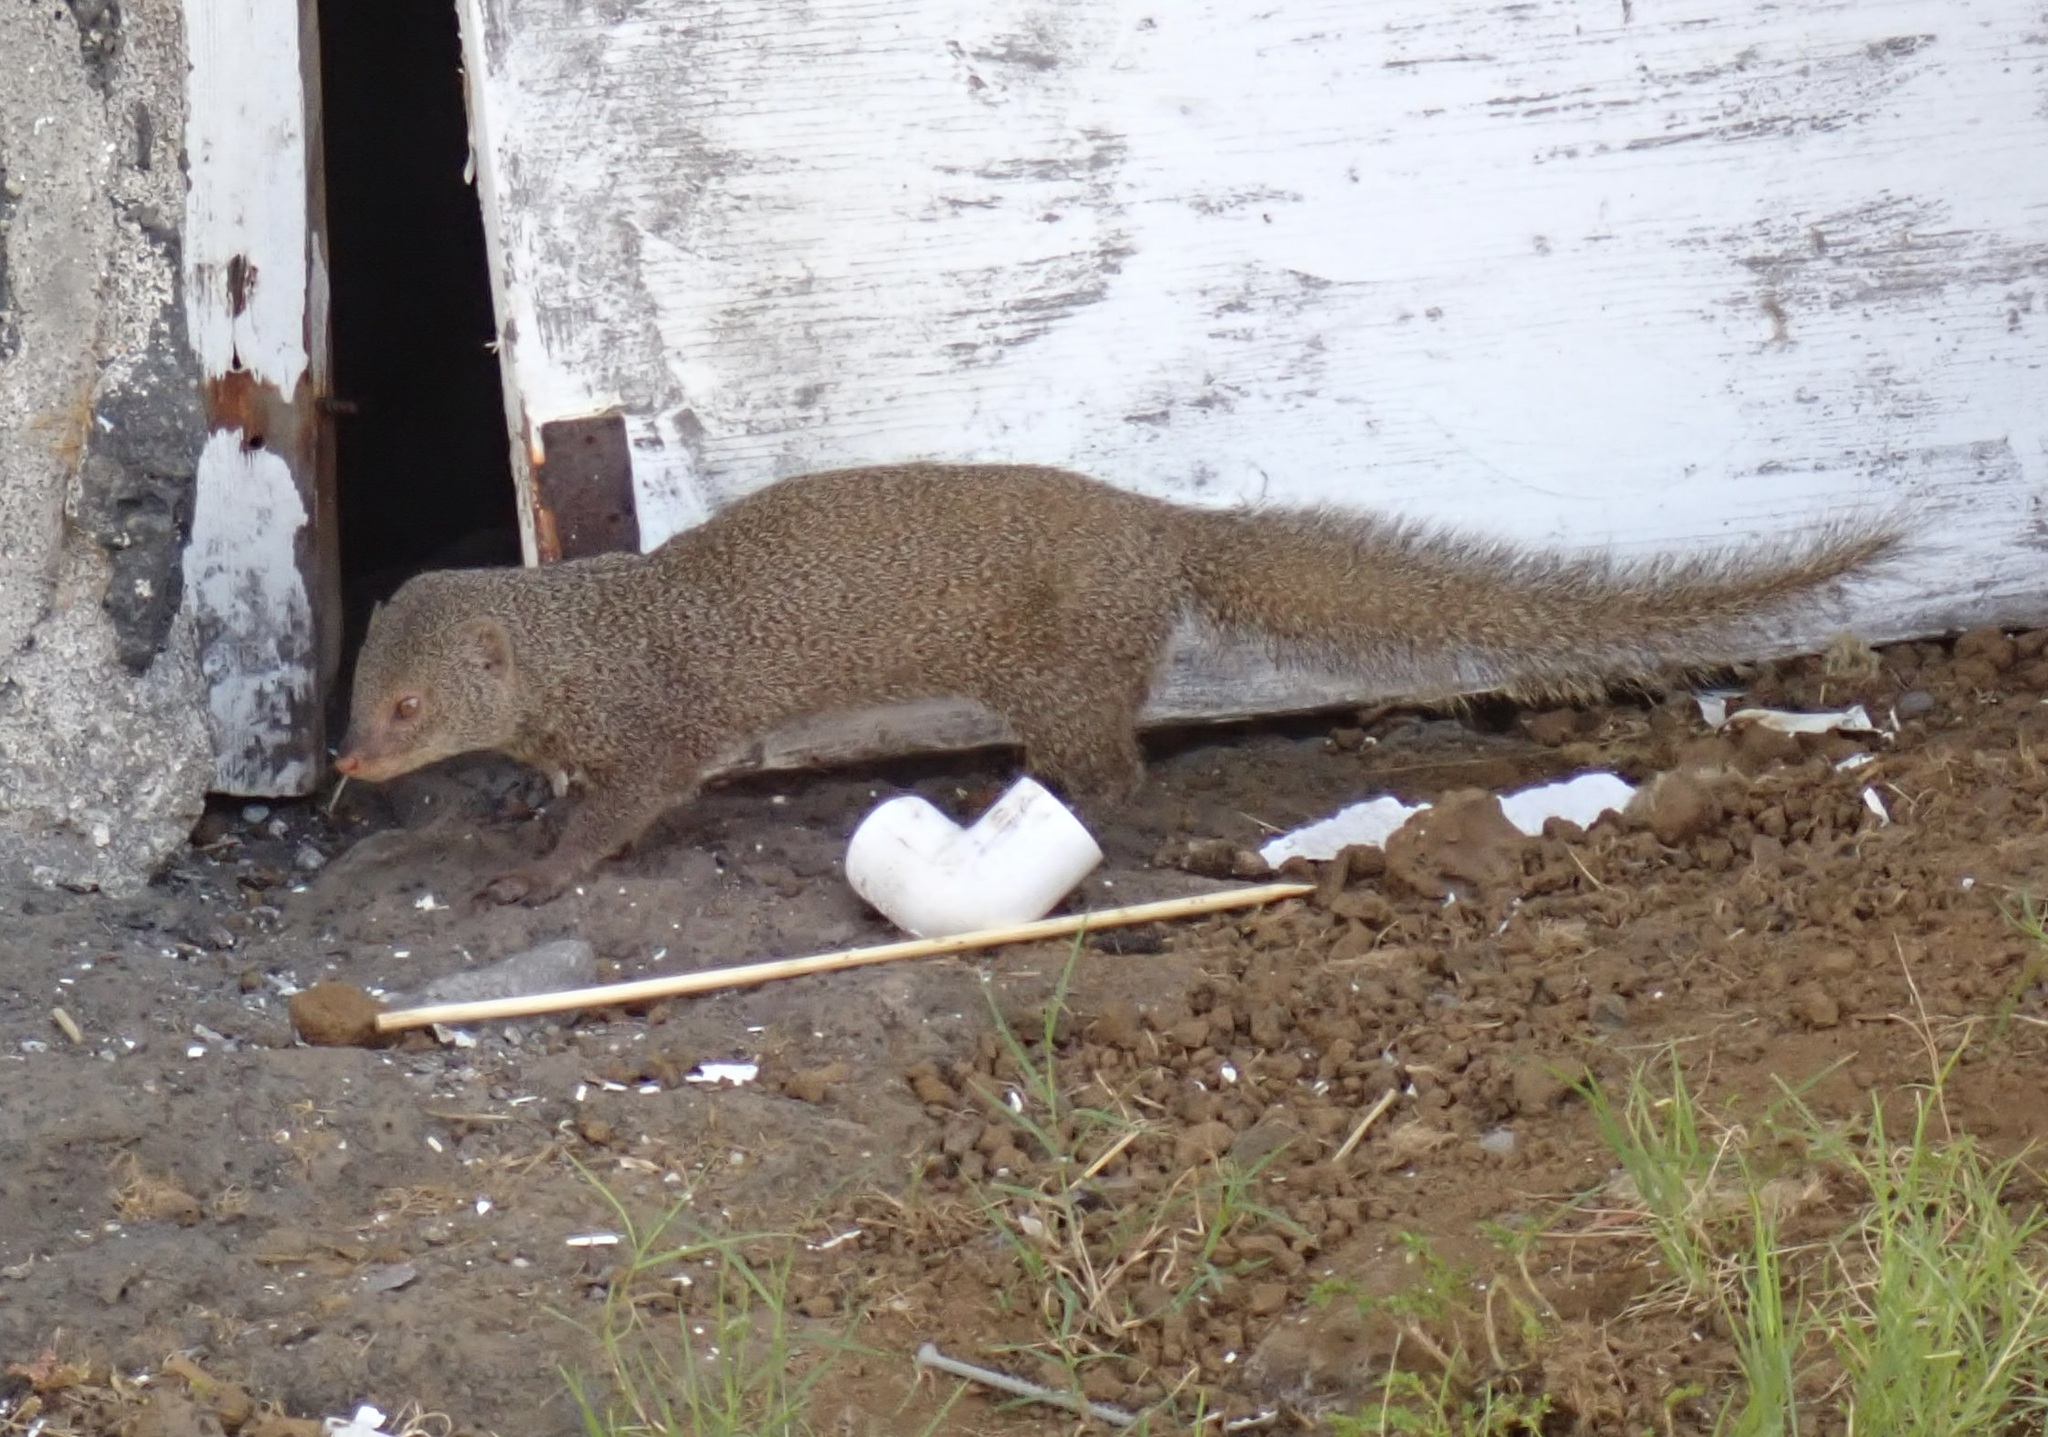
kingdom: Animalia
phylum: Chordata
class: Mammalia
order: Carnivora
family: Herpestidae
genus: Herpestes
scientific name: Herpestes javanicus
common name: Small asian mongoose
